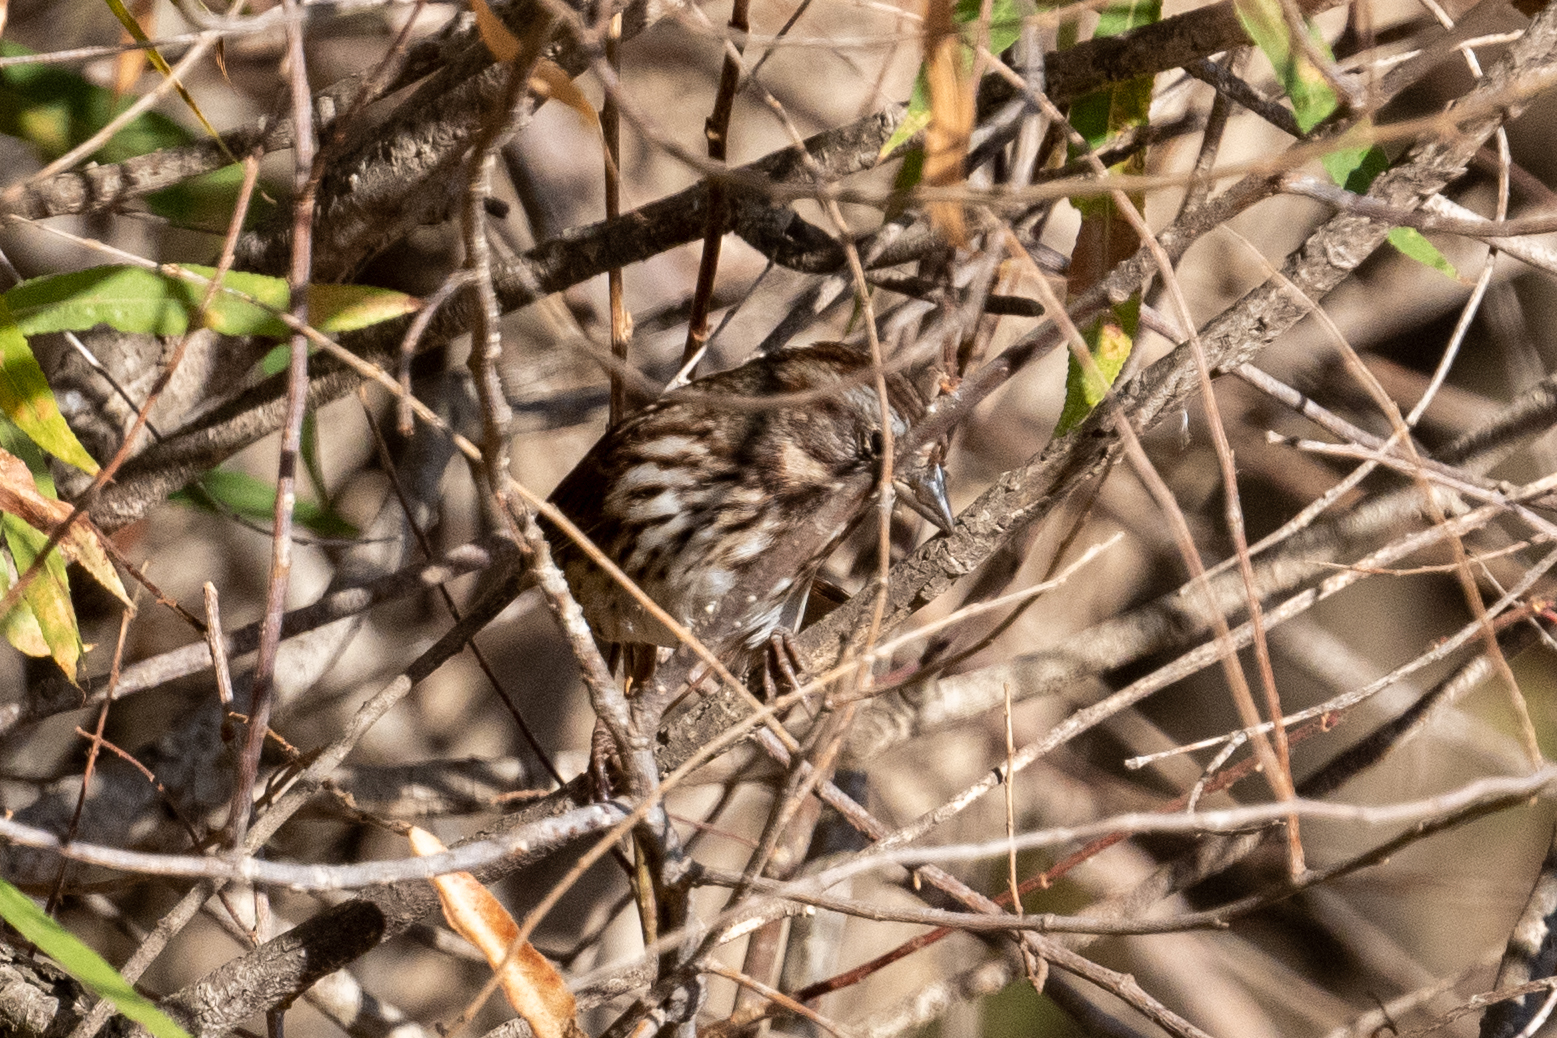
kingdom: Animalia
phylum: Chordata
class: Aves
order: Passeriformes
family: Passerellidae
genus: Melospiza
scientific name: Melospiza melodia
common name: Song sparrow
